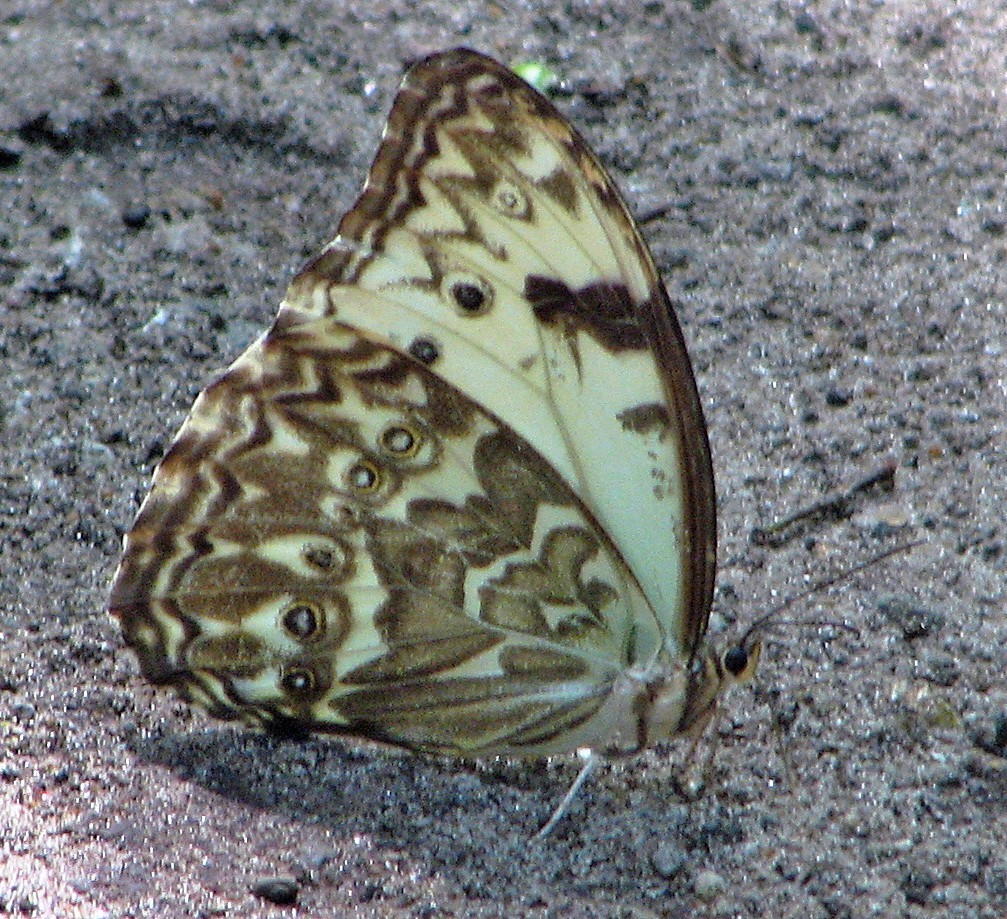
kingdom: Animalia
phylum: Arthropoda
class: Insecta
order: Lepidoptera
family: Nymphalidae
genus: Morpho
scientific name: Morpho epistrophus
